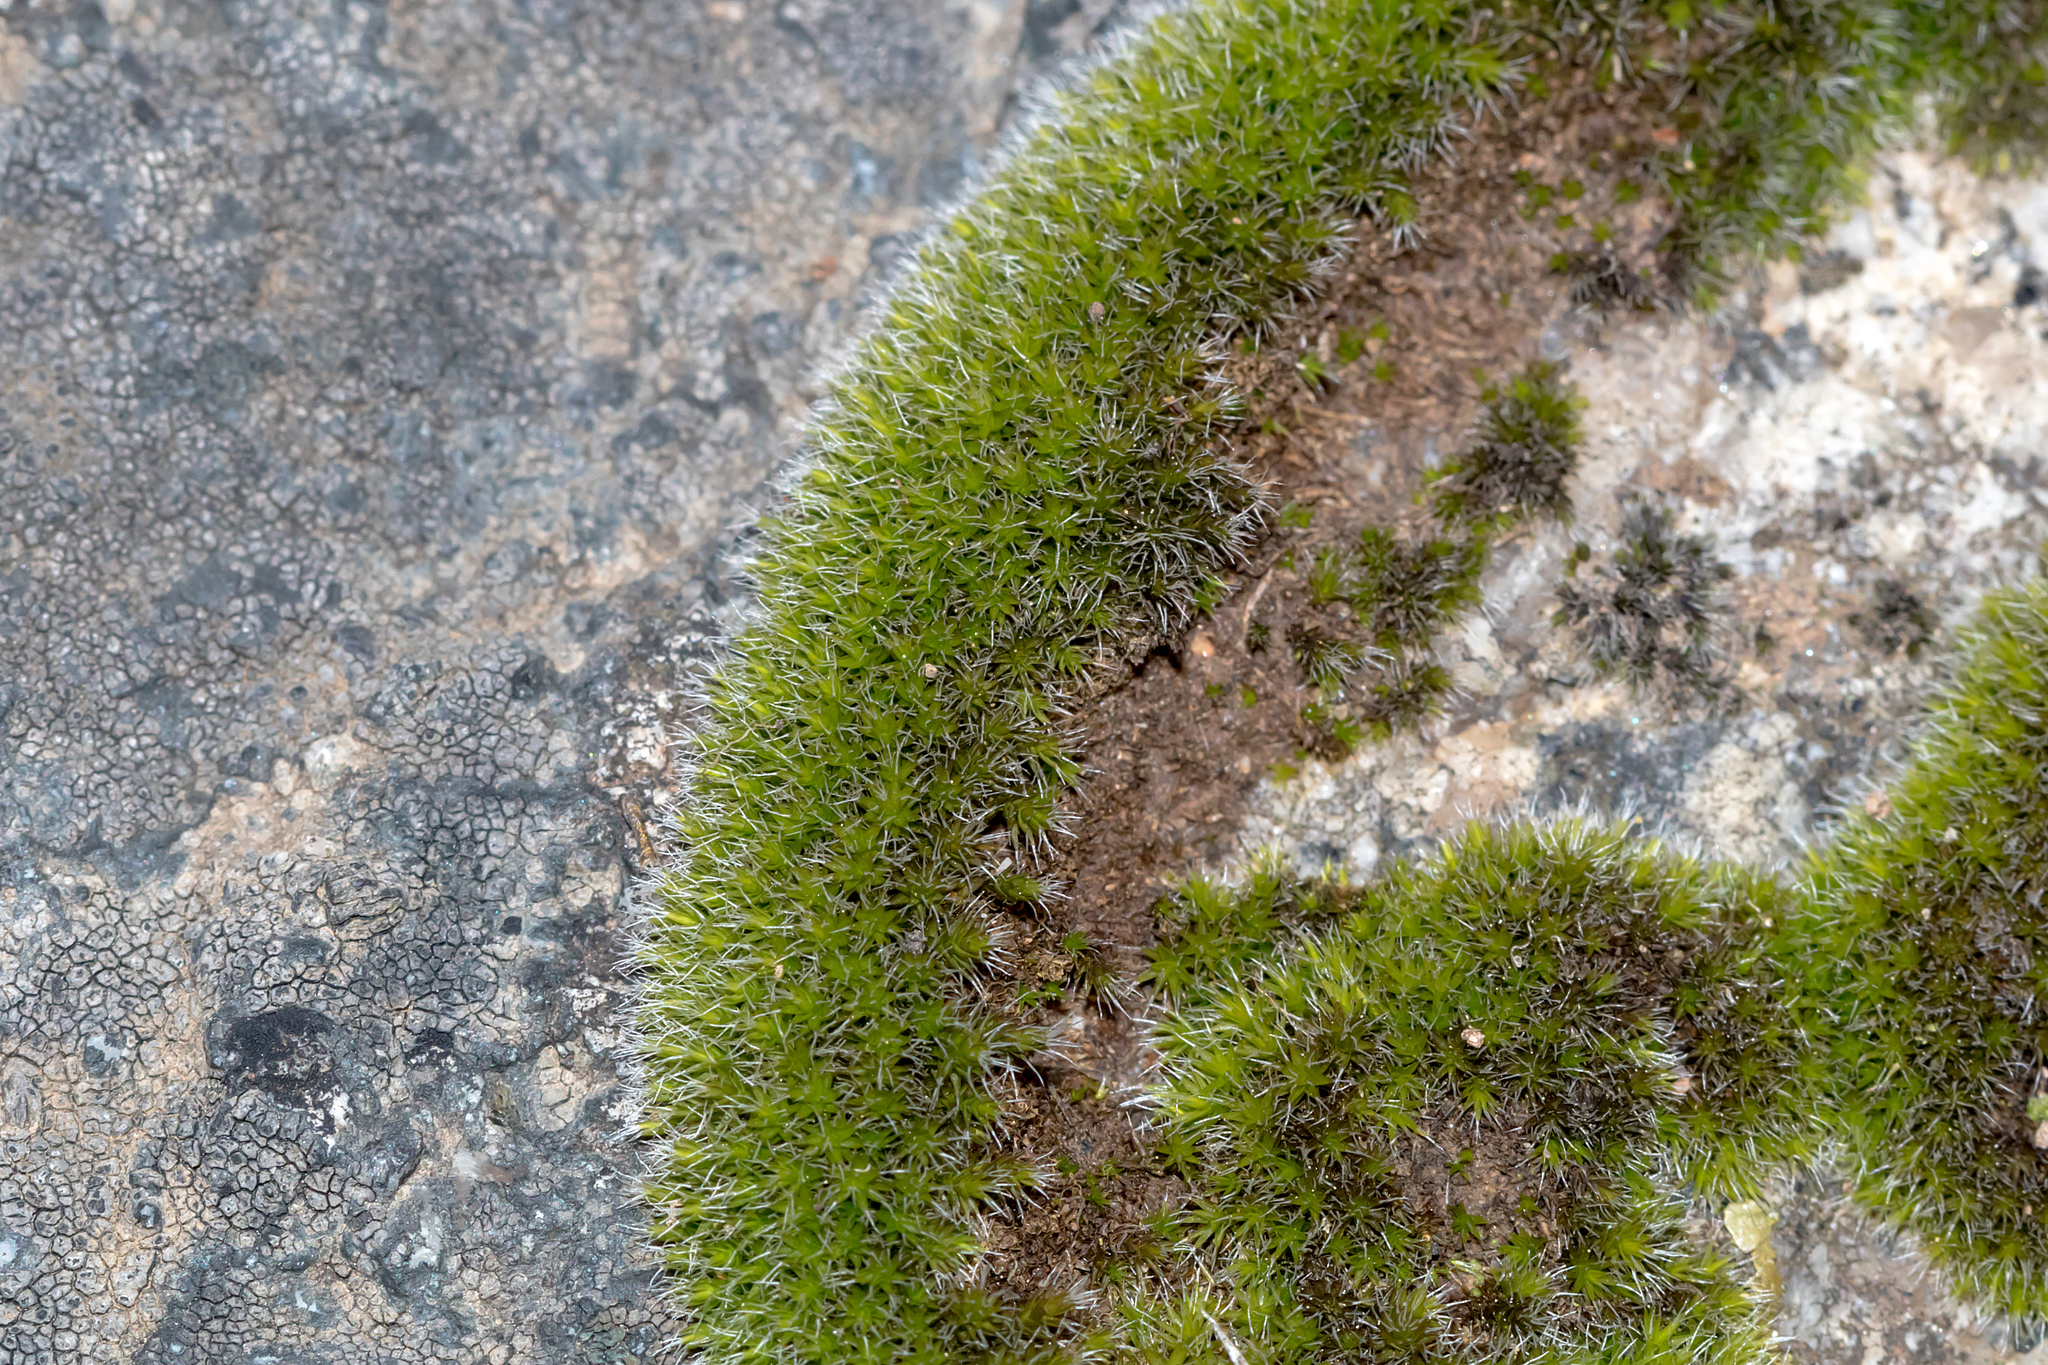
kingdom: Plantae
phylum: Bryophyta
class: Bryopsida
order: Grimmiales
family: Grimmiaceae
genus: Grimmia
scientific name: Grimmia laevigata
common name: Hoary grimmia
